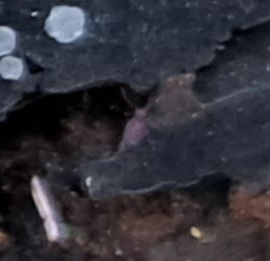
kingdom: Animalia
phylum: Arthropoda
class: Collembola
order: Symphypleona
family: Dicyrtomidae
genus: Dicyrtoma
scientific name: Dicyrtoma fusca
